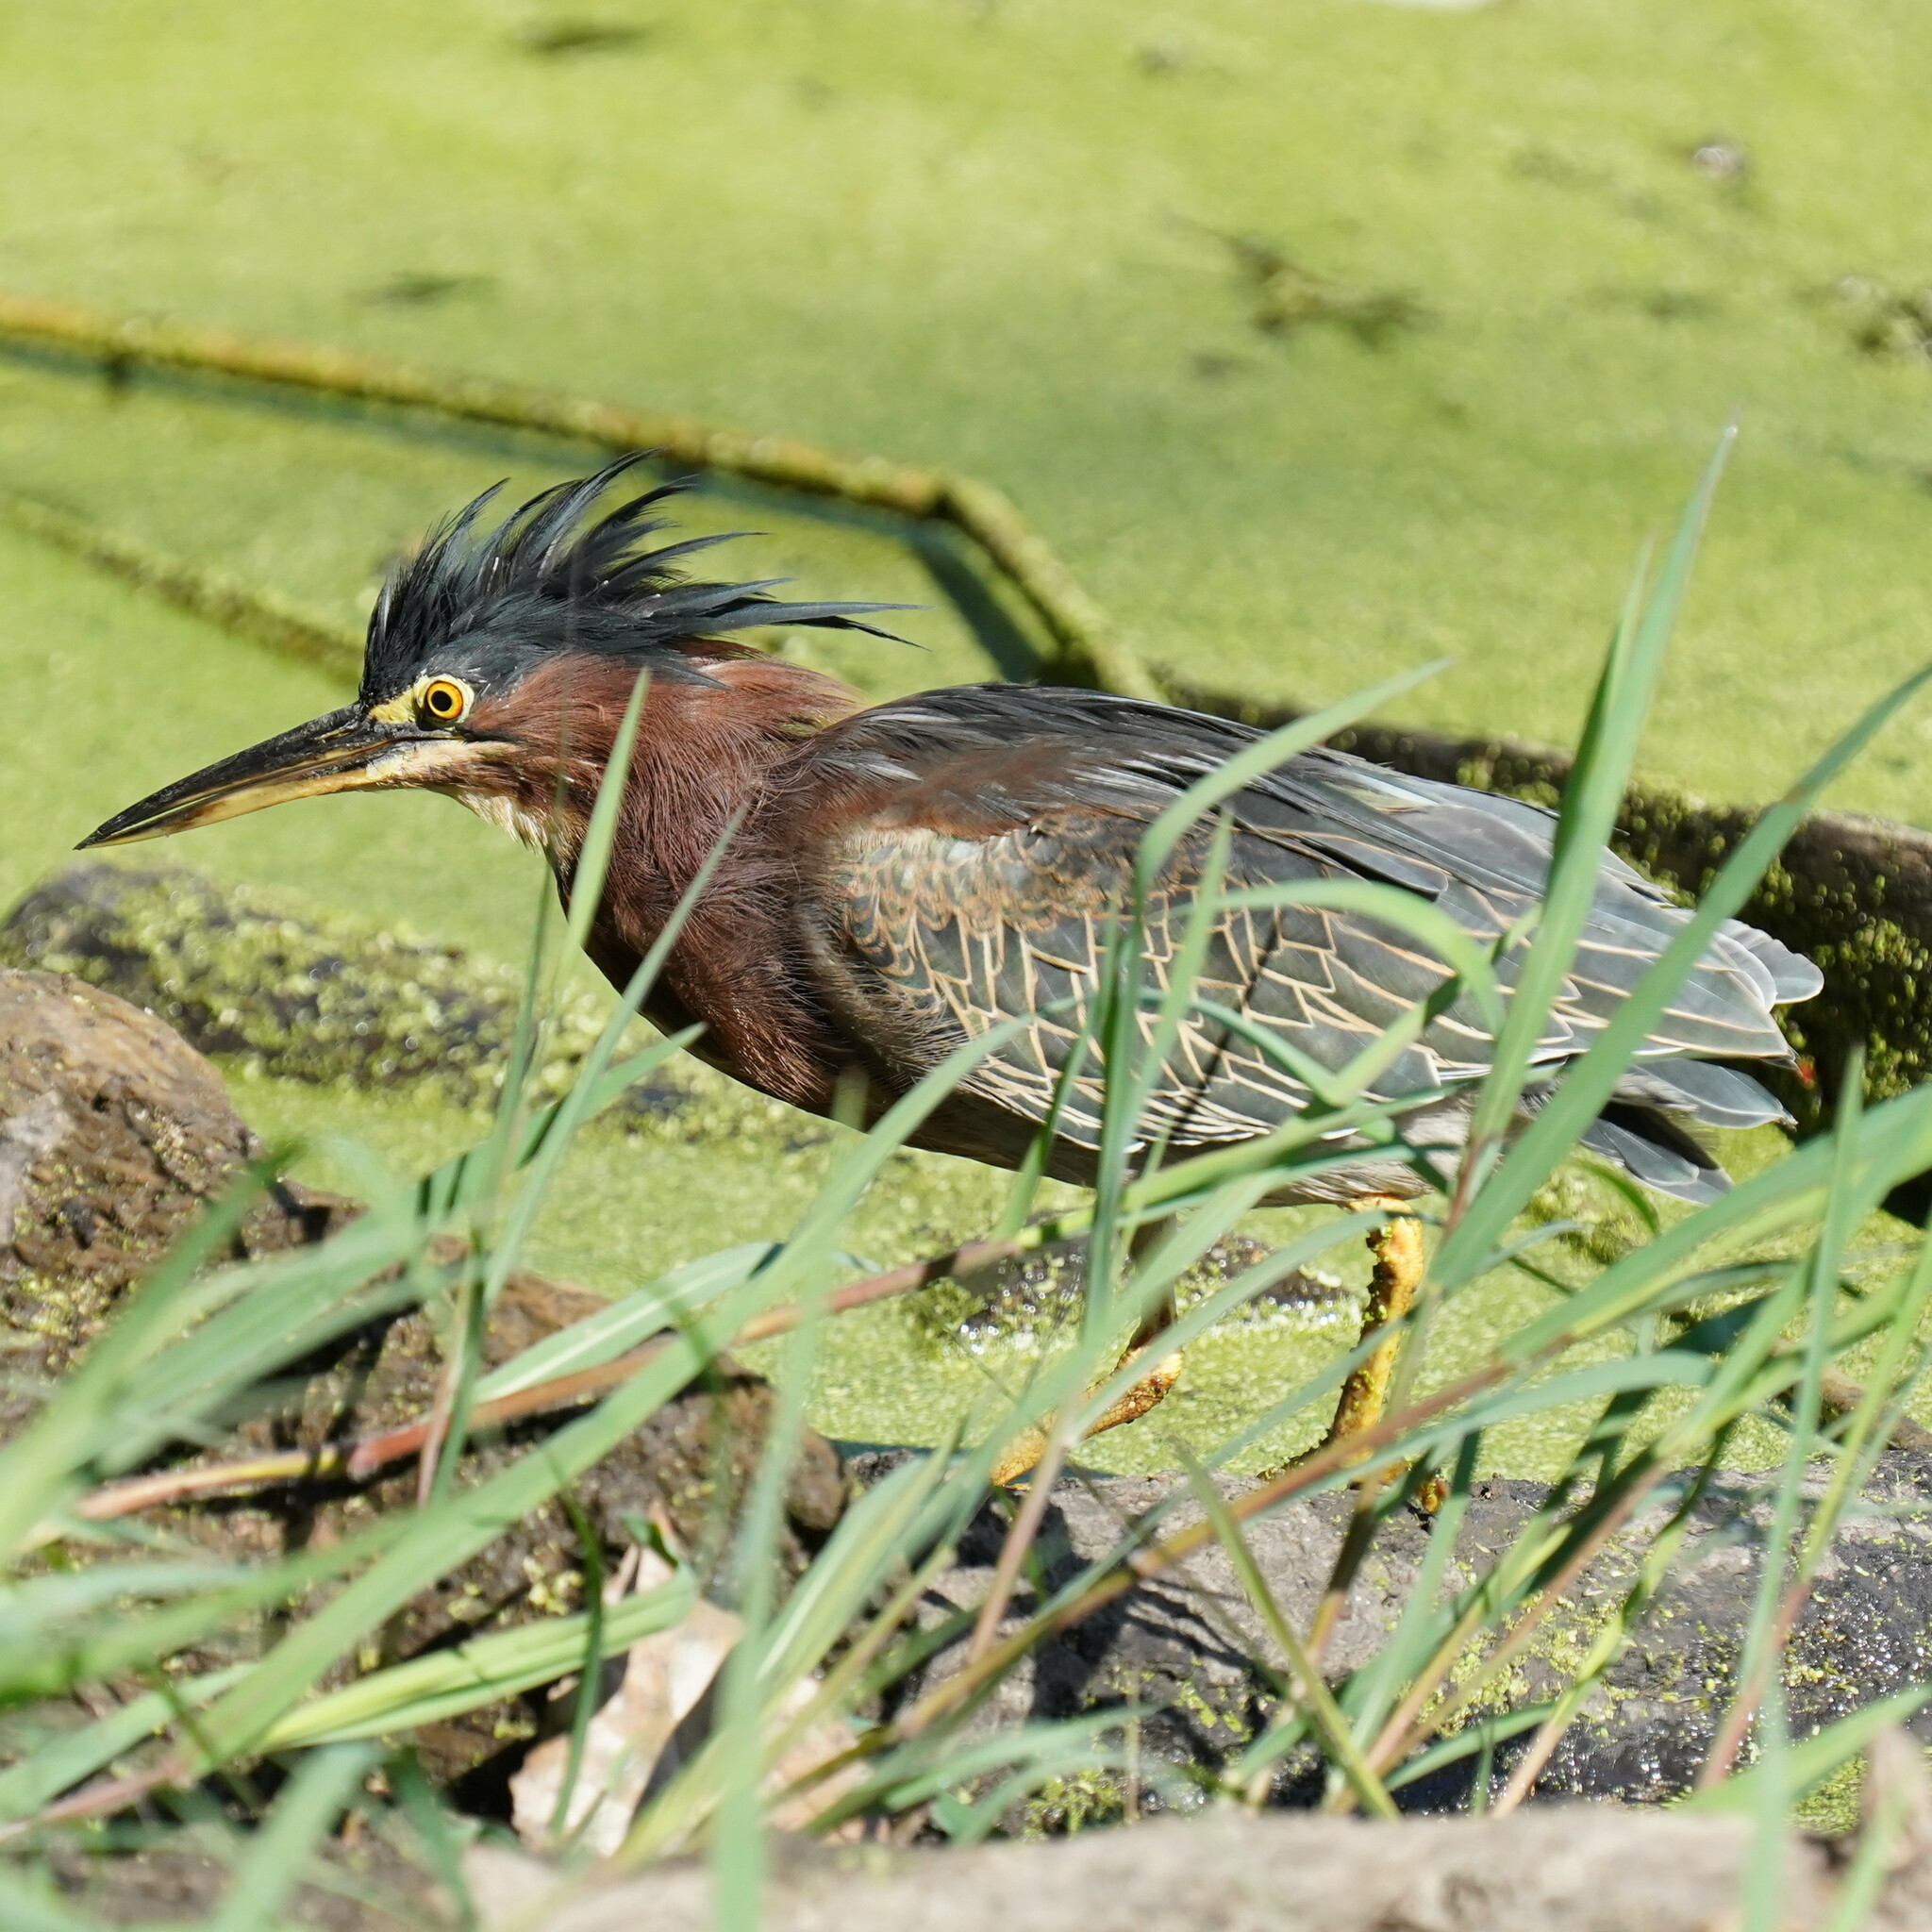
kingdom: Animalia
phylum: Chordata
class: Aves
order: Pelecaniformes
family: Ardeidae
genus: Butorides
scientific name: Butorides virescens
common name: Green heron
